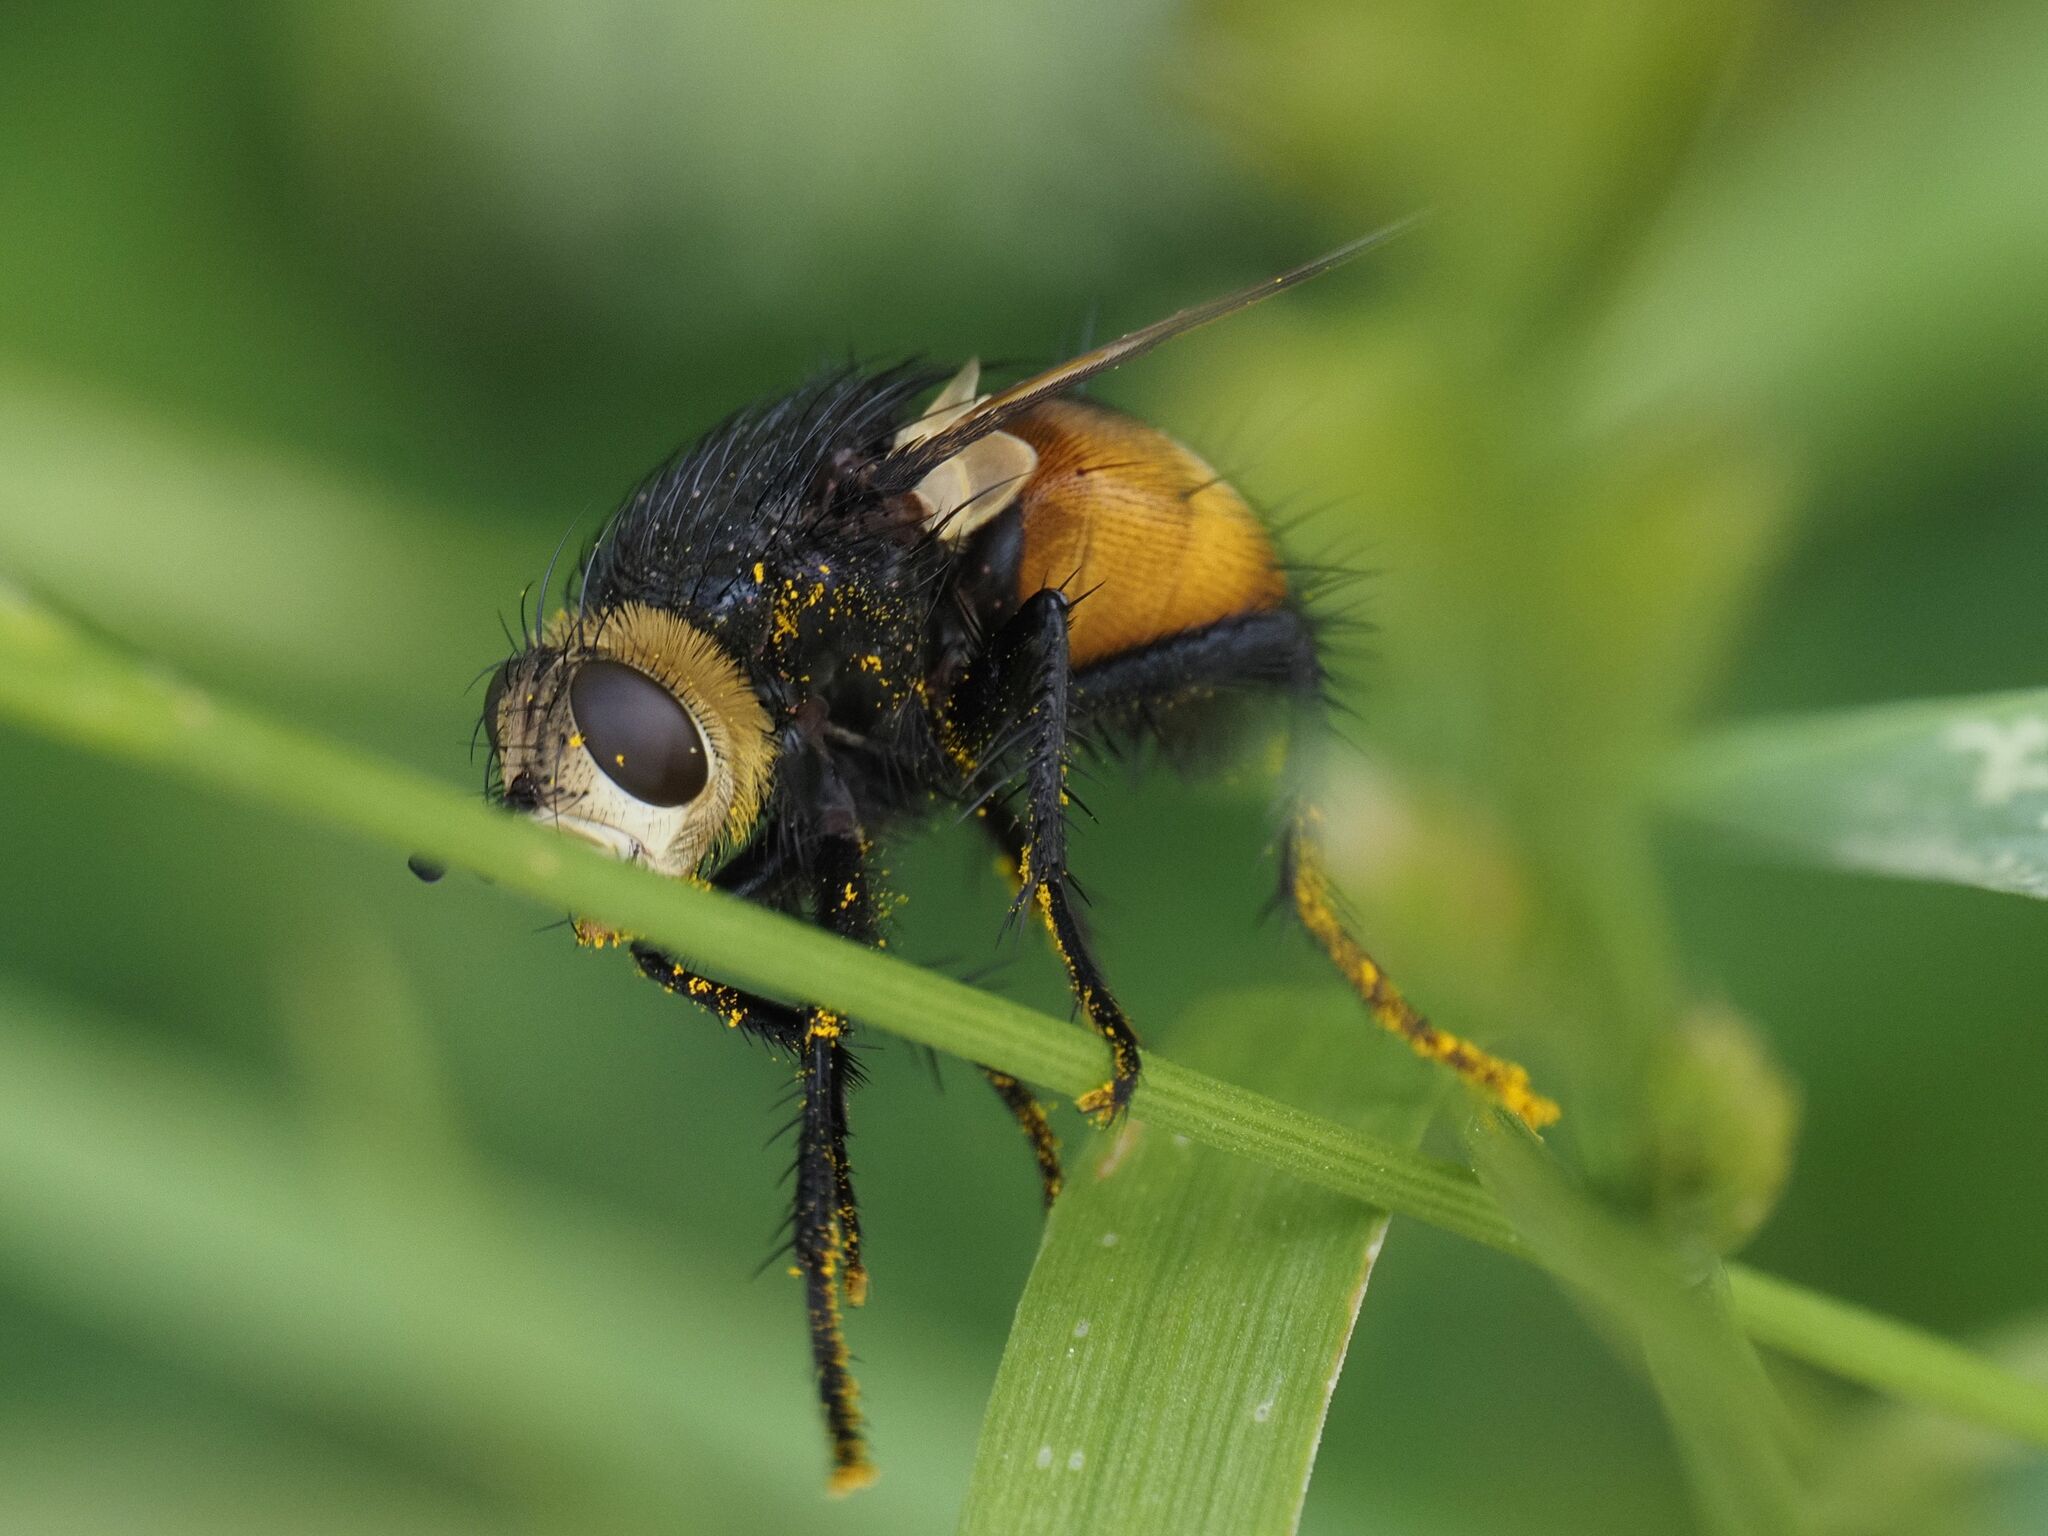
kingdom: Animalia
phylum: Arthropoda
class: Insecta
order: Diptera
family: Tachinidae
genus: Nowickia
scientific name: Nowickia ferox
